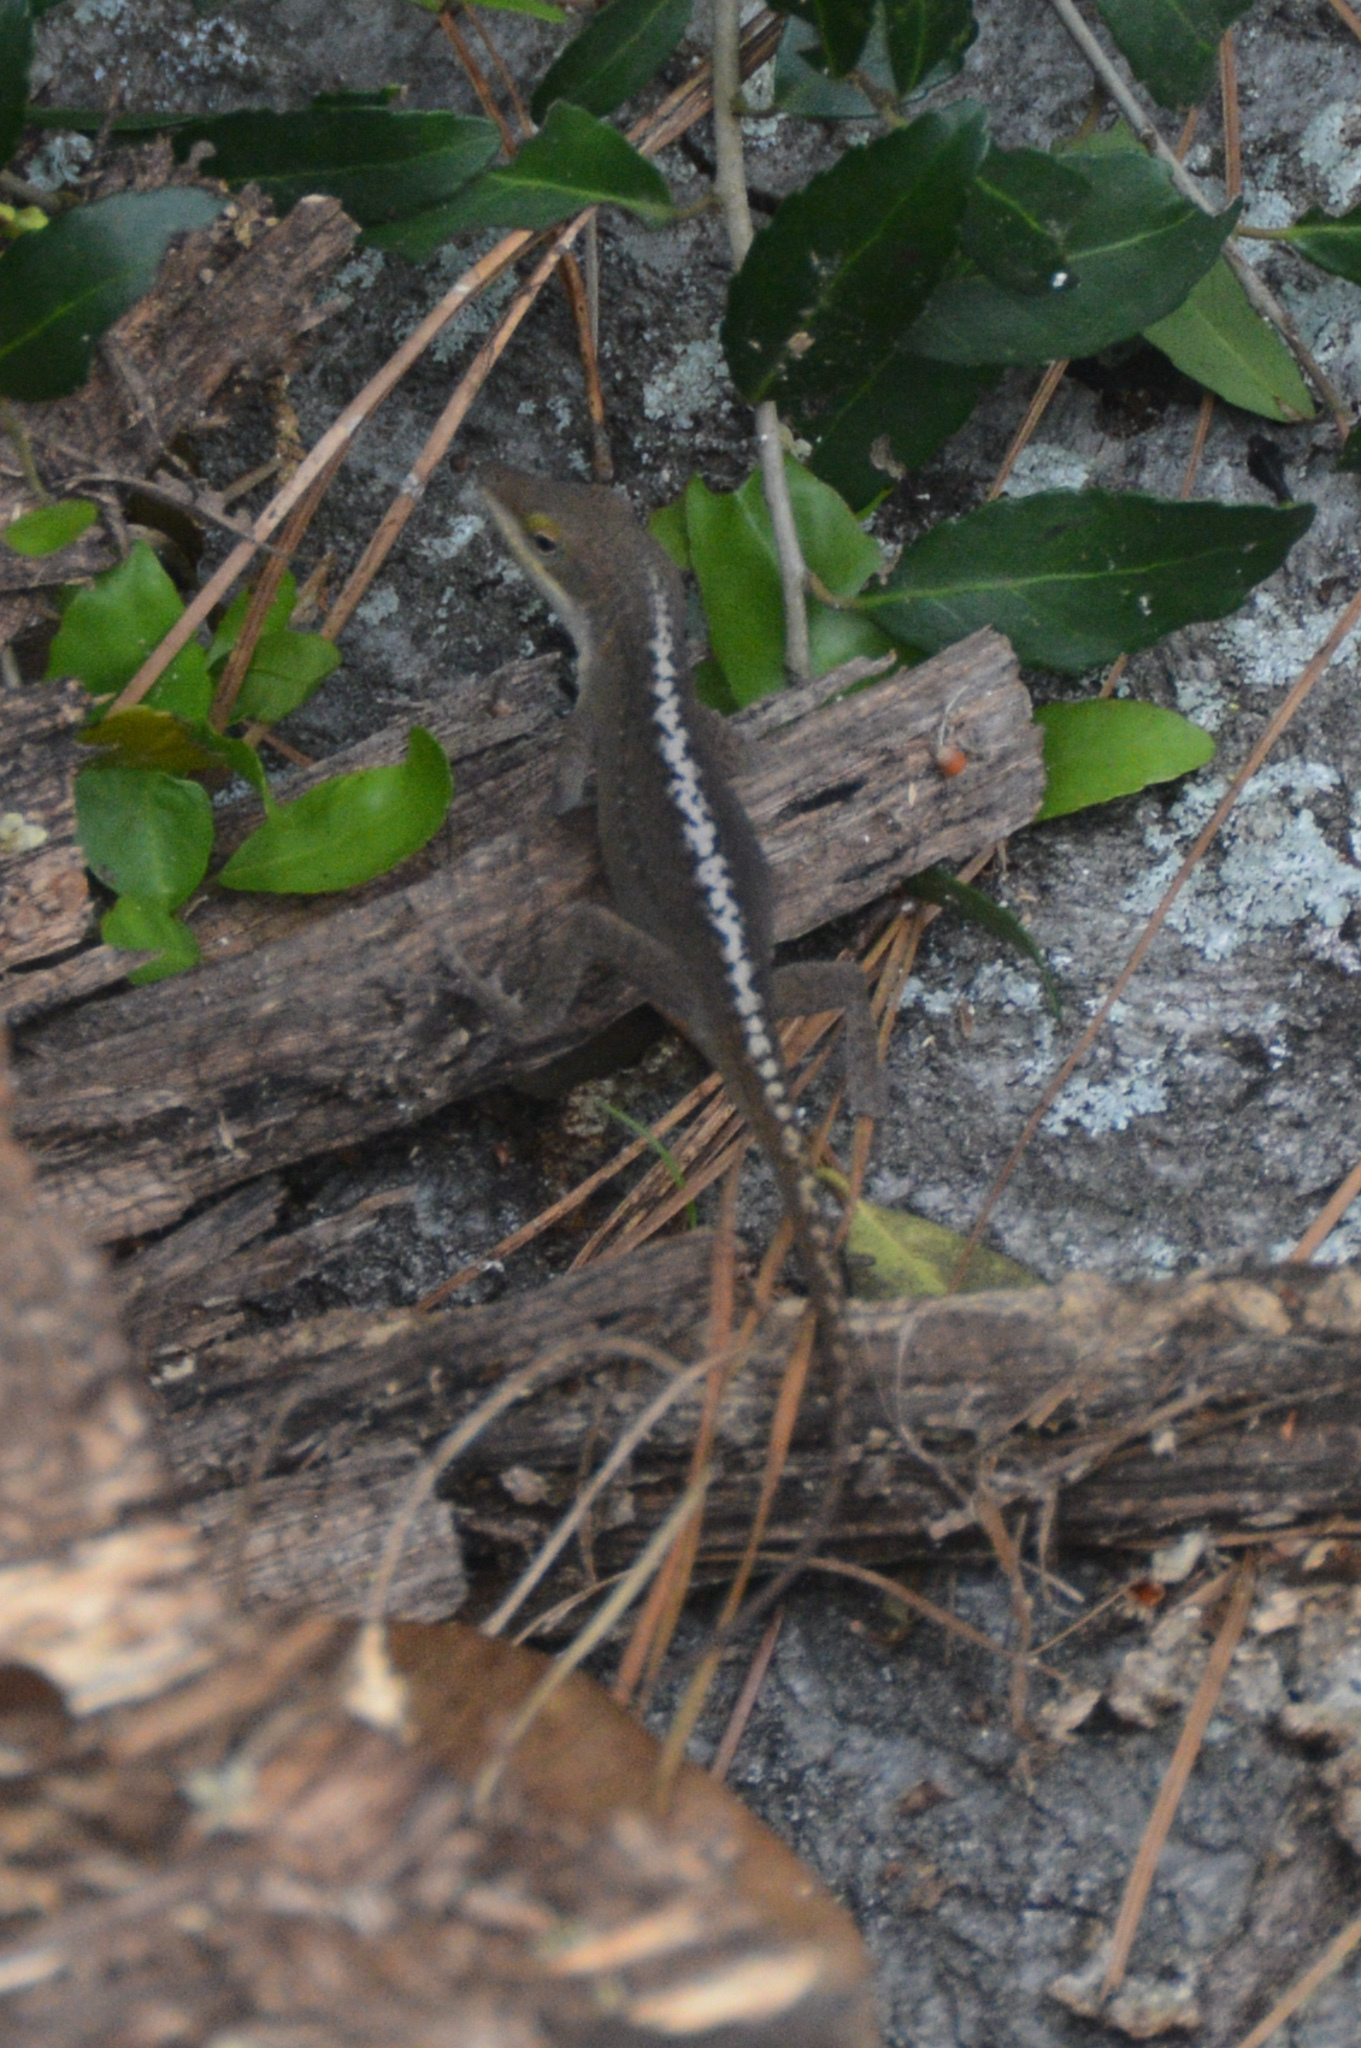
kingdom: Animalia
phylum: Chordata
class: Squamata
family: Dactyloidae
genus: Anolis
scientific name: Anolis carolinensis
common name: Green anole
